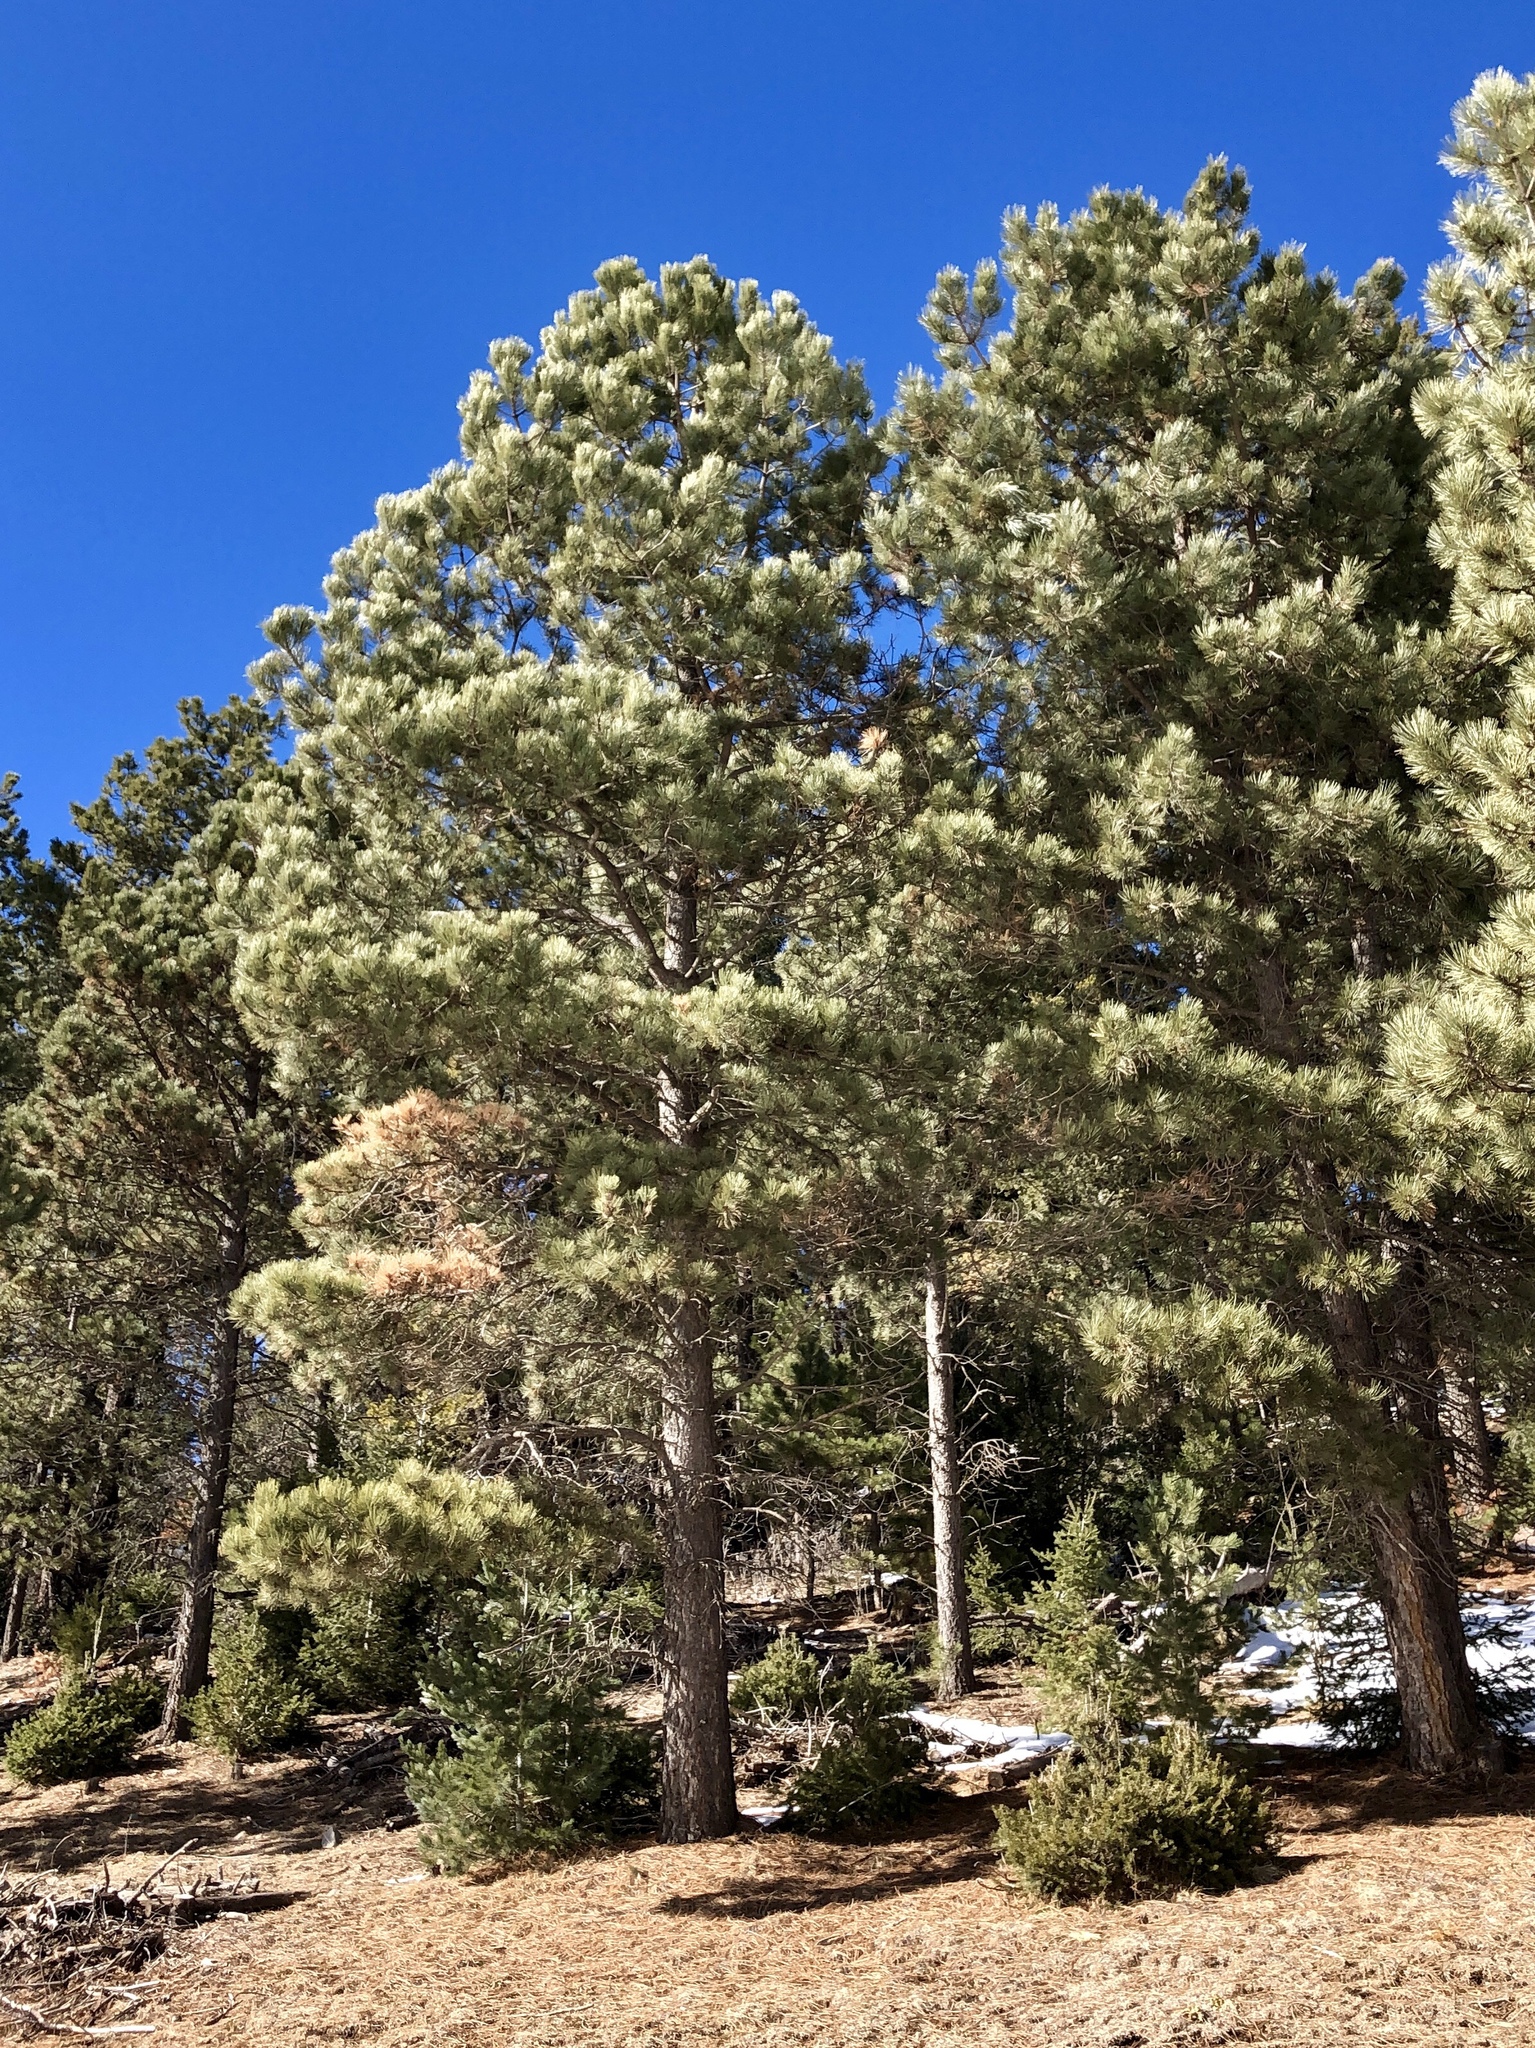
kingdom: Plantae
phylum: Tracheophyta
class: Pinopsida
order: Pinales
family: Pinaceae
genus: Pinus
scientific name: Pinus ponderosa
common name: Western yellow-pine
